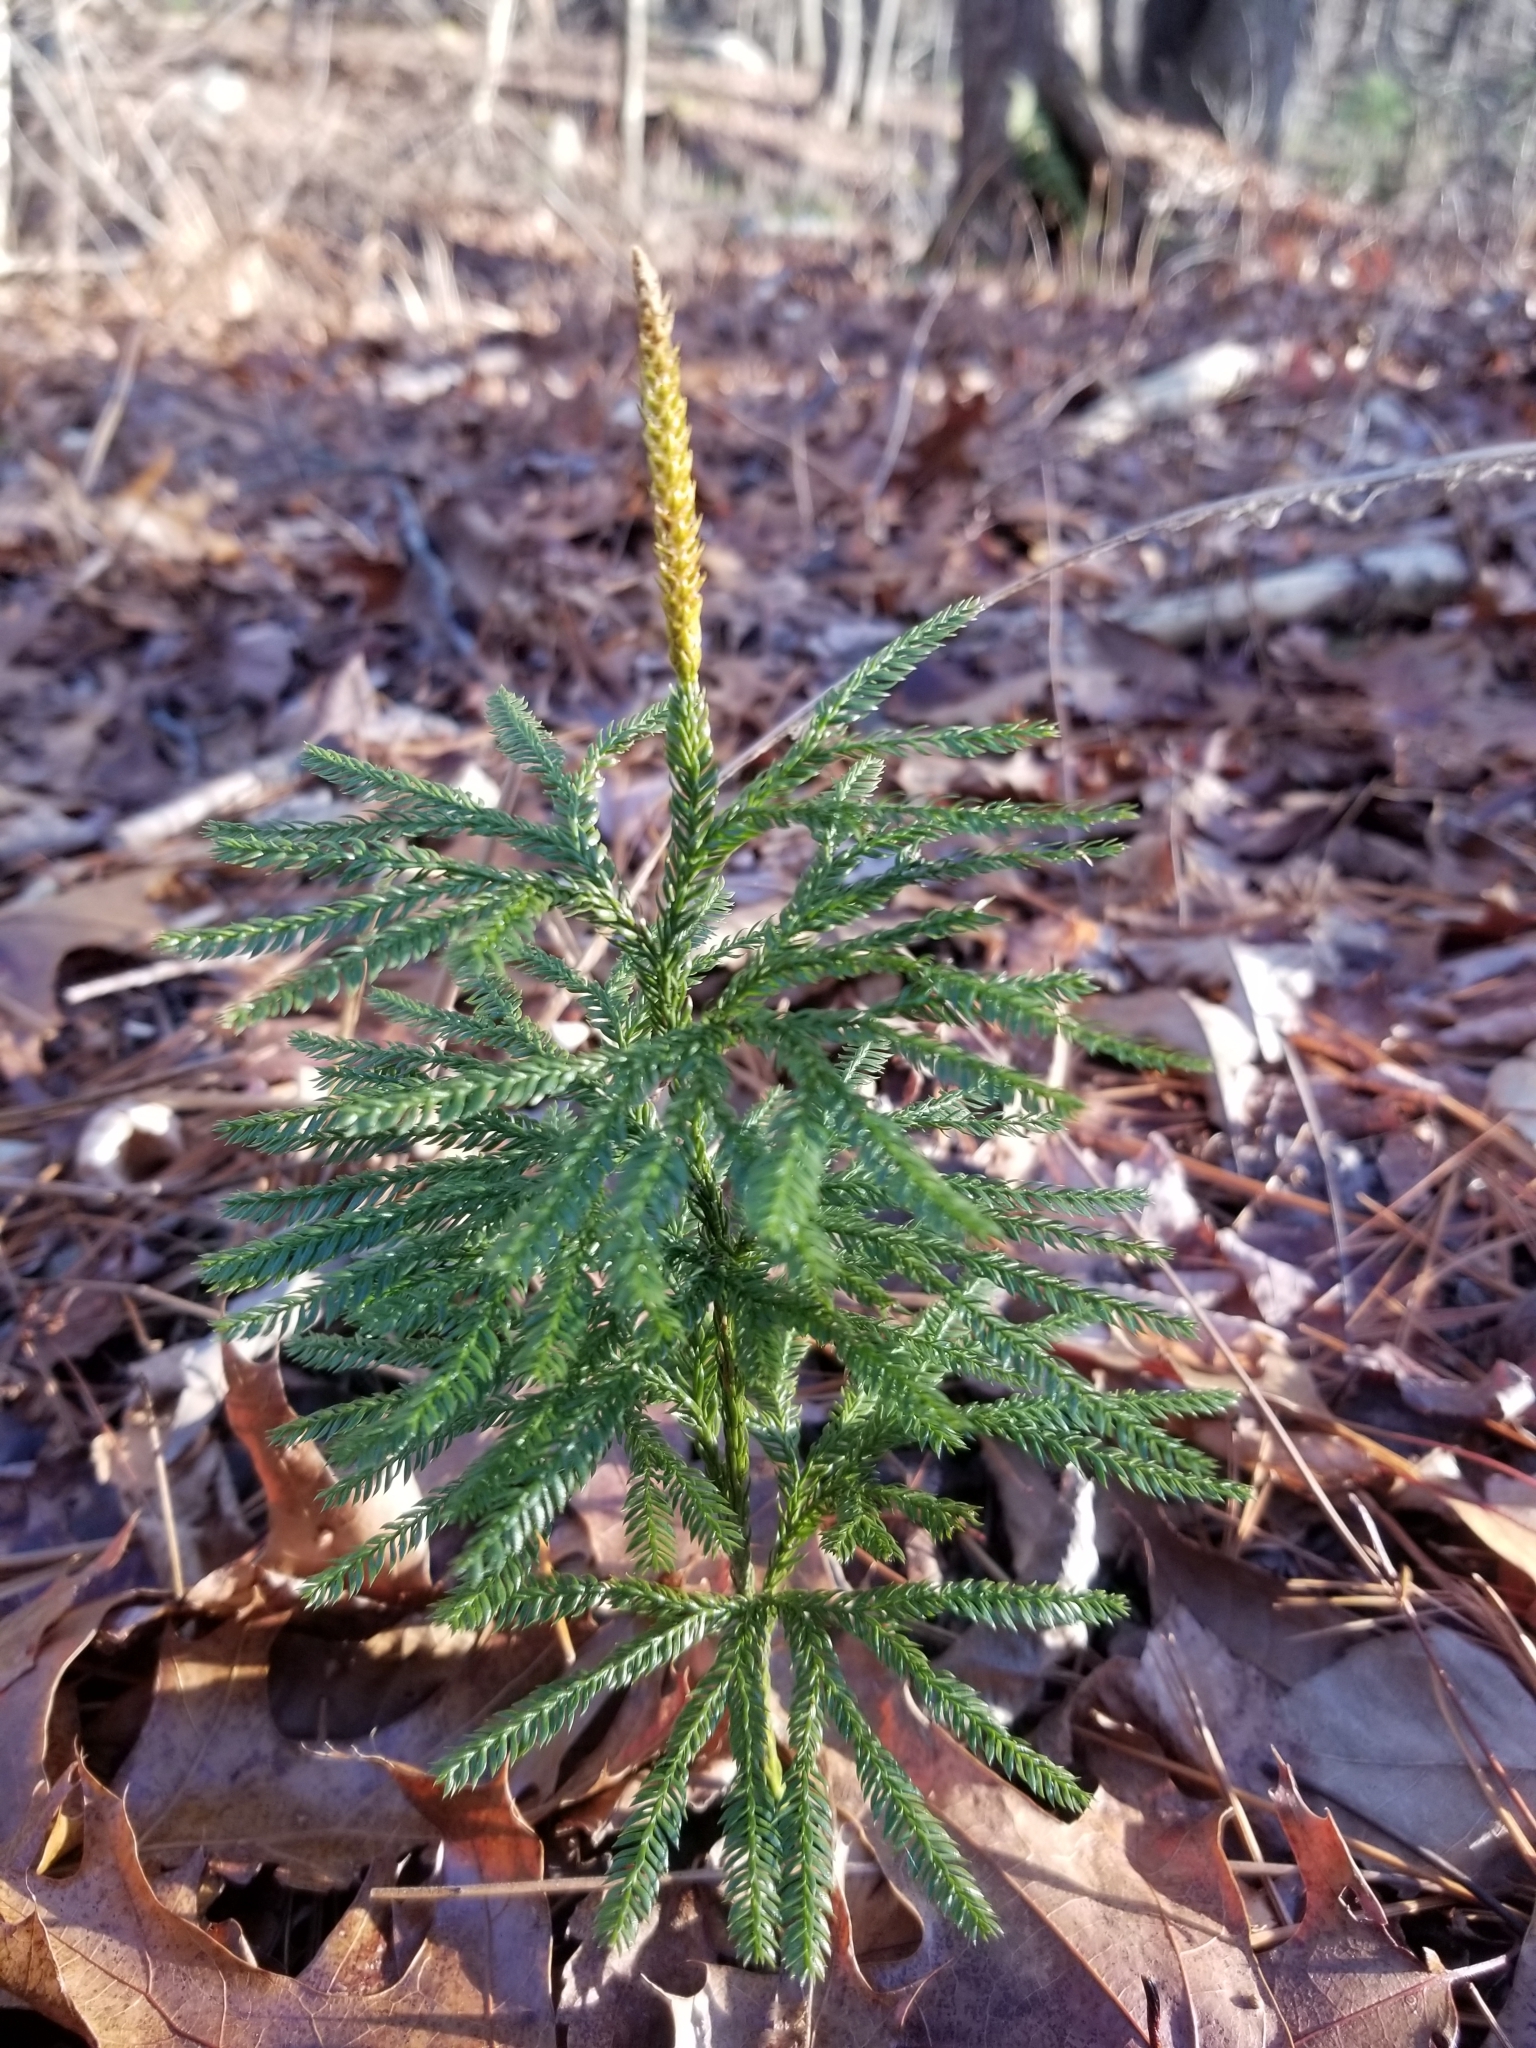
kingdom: Plantae
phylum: Tracheophyta
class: Lycopodiopsida
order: Lycopodiales
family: Lycopodiaceae
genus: Dendrolycopodium
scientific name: Dendrolycopodium obscurum
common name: Common ground-pine
